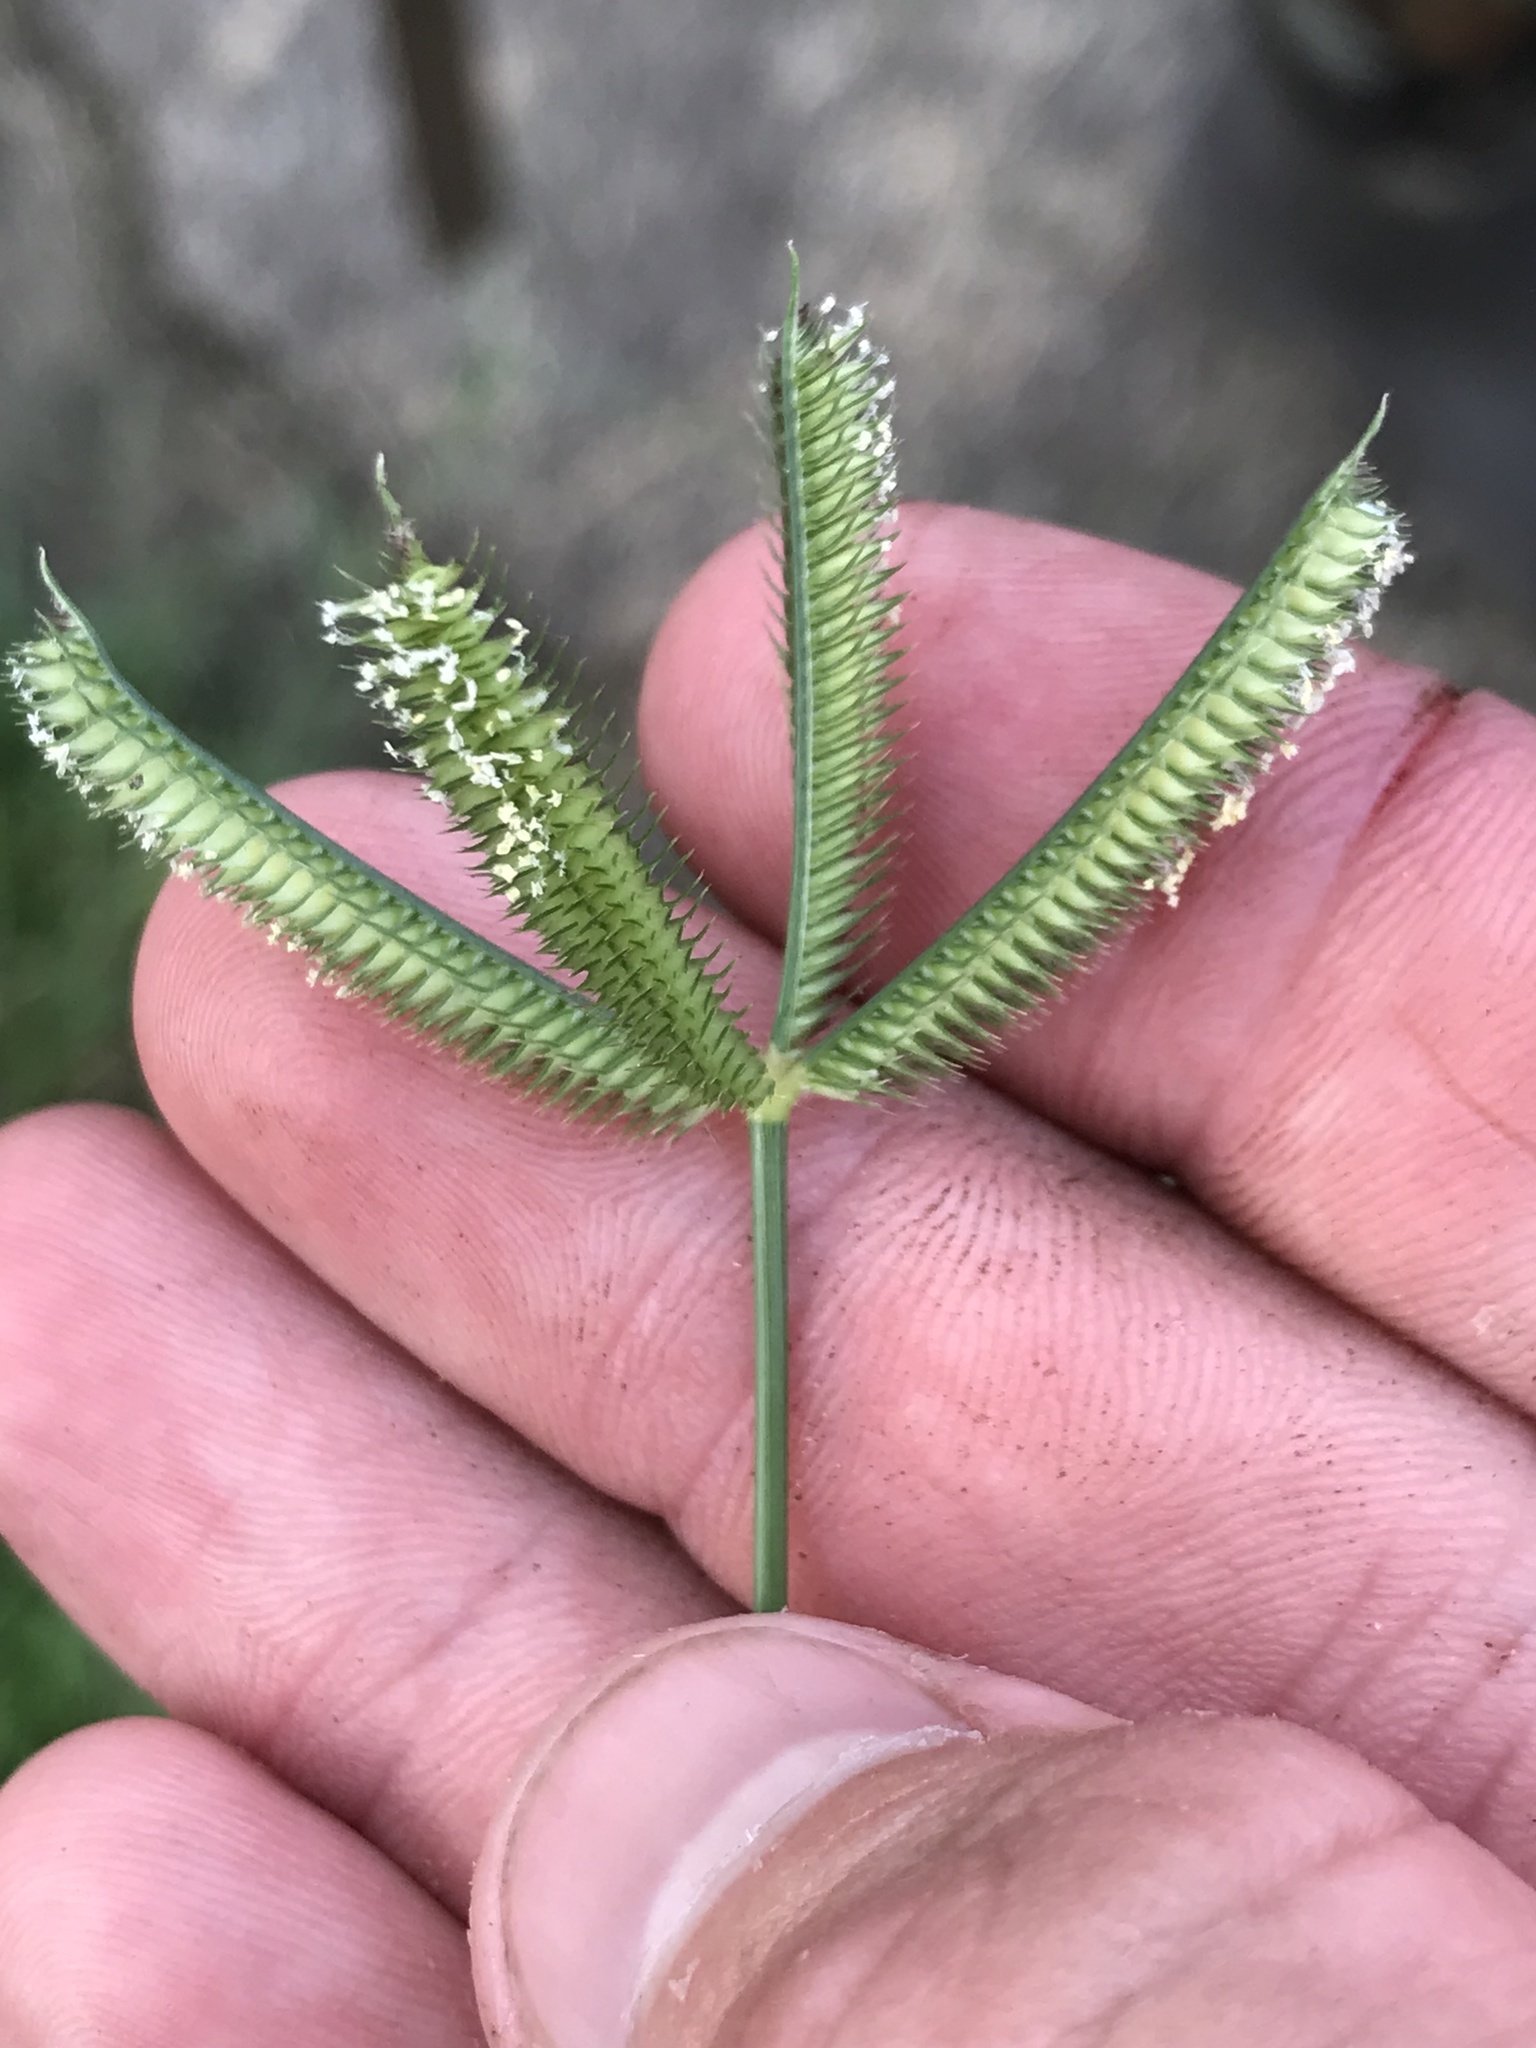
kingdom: Plantae
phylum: Tracheophyta
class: Liliopsida
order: Poales
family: Poaceae
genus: Dactyloctenium
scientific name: Dactyloctenium aegyptium
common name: Egyptian grass
